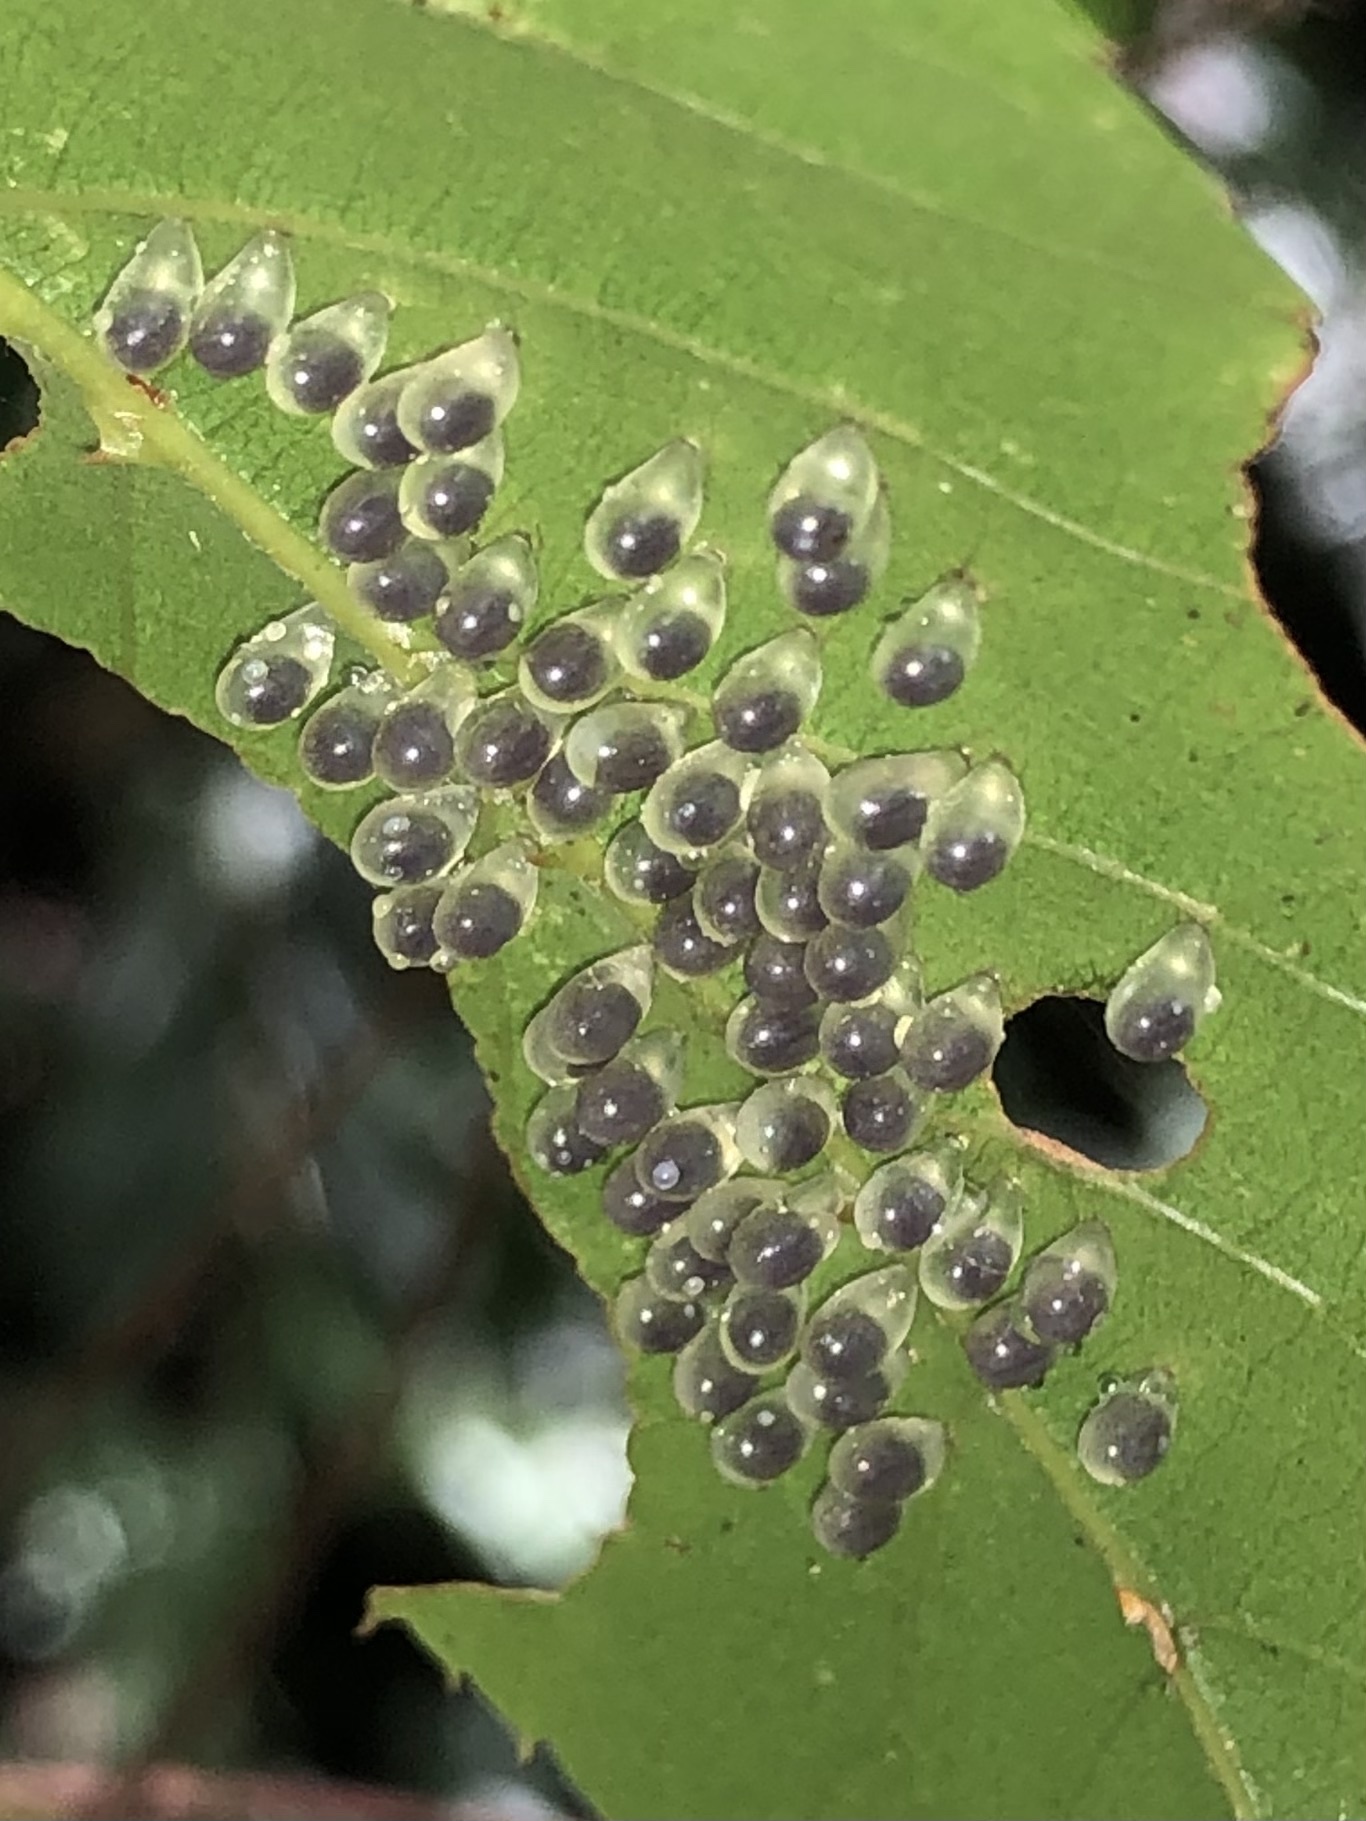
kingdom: Animalia
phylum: Arthropoda
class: Insecta
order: Hymenoptera
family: Pergidae
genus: Philomastix
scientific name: Philomastix macleaii
